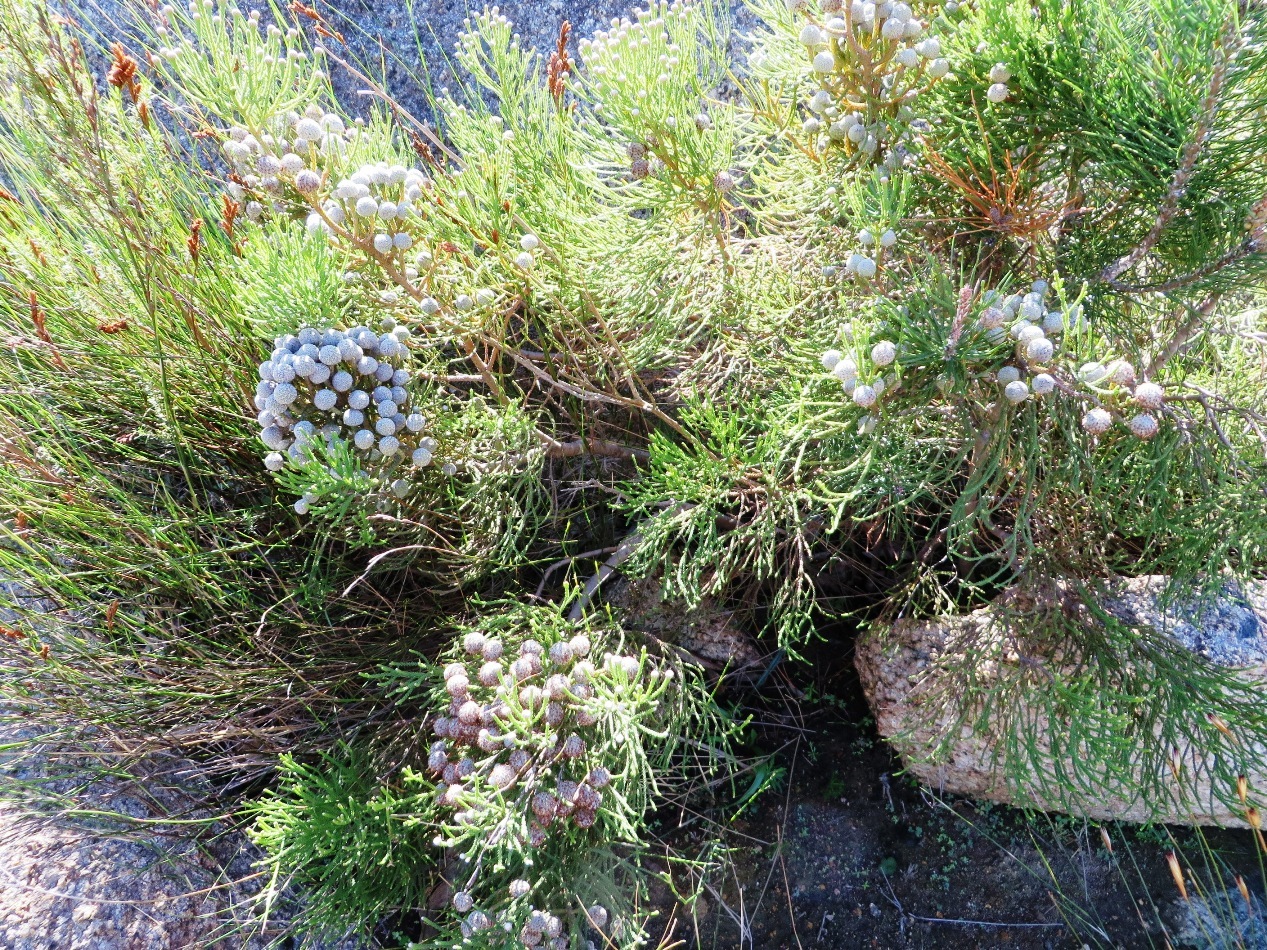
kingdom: Plantae
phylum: Tracheophyta
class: Magnoliopsida
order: Bruniales
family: Bruniaceae
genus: Brunia
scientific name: Brunia noduliflora
